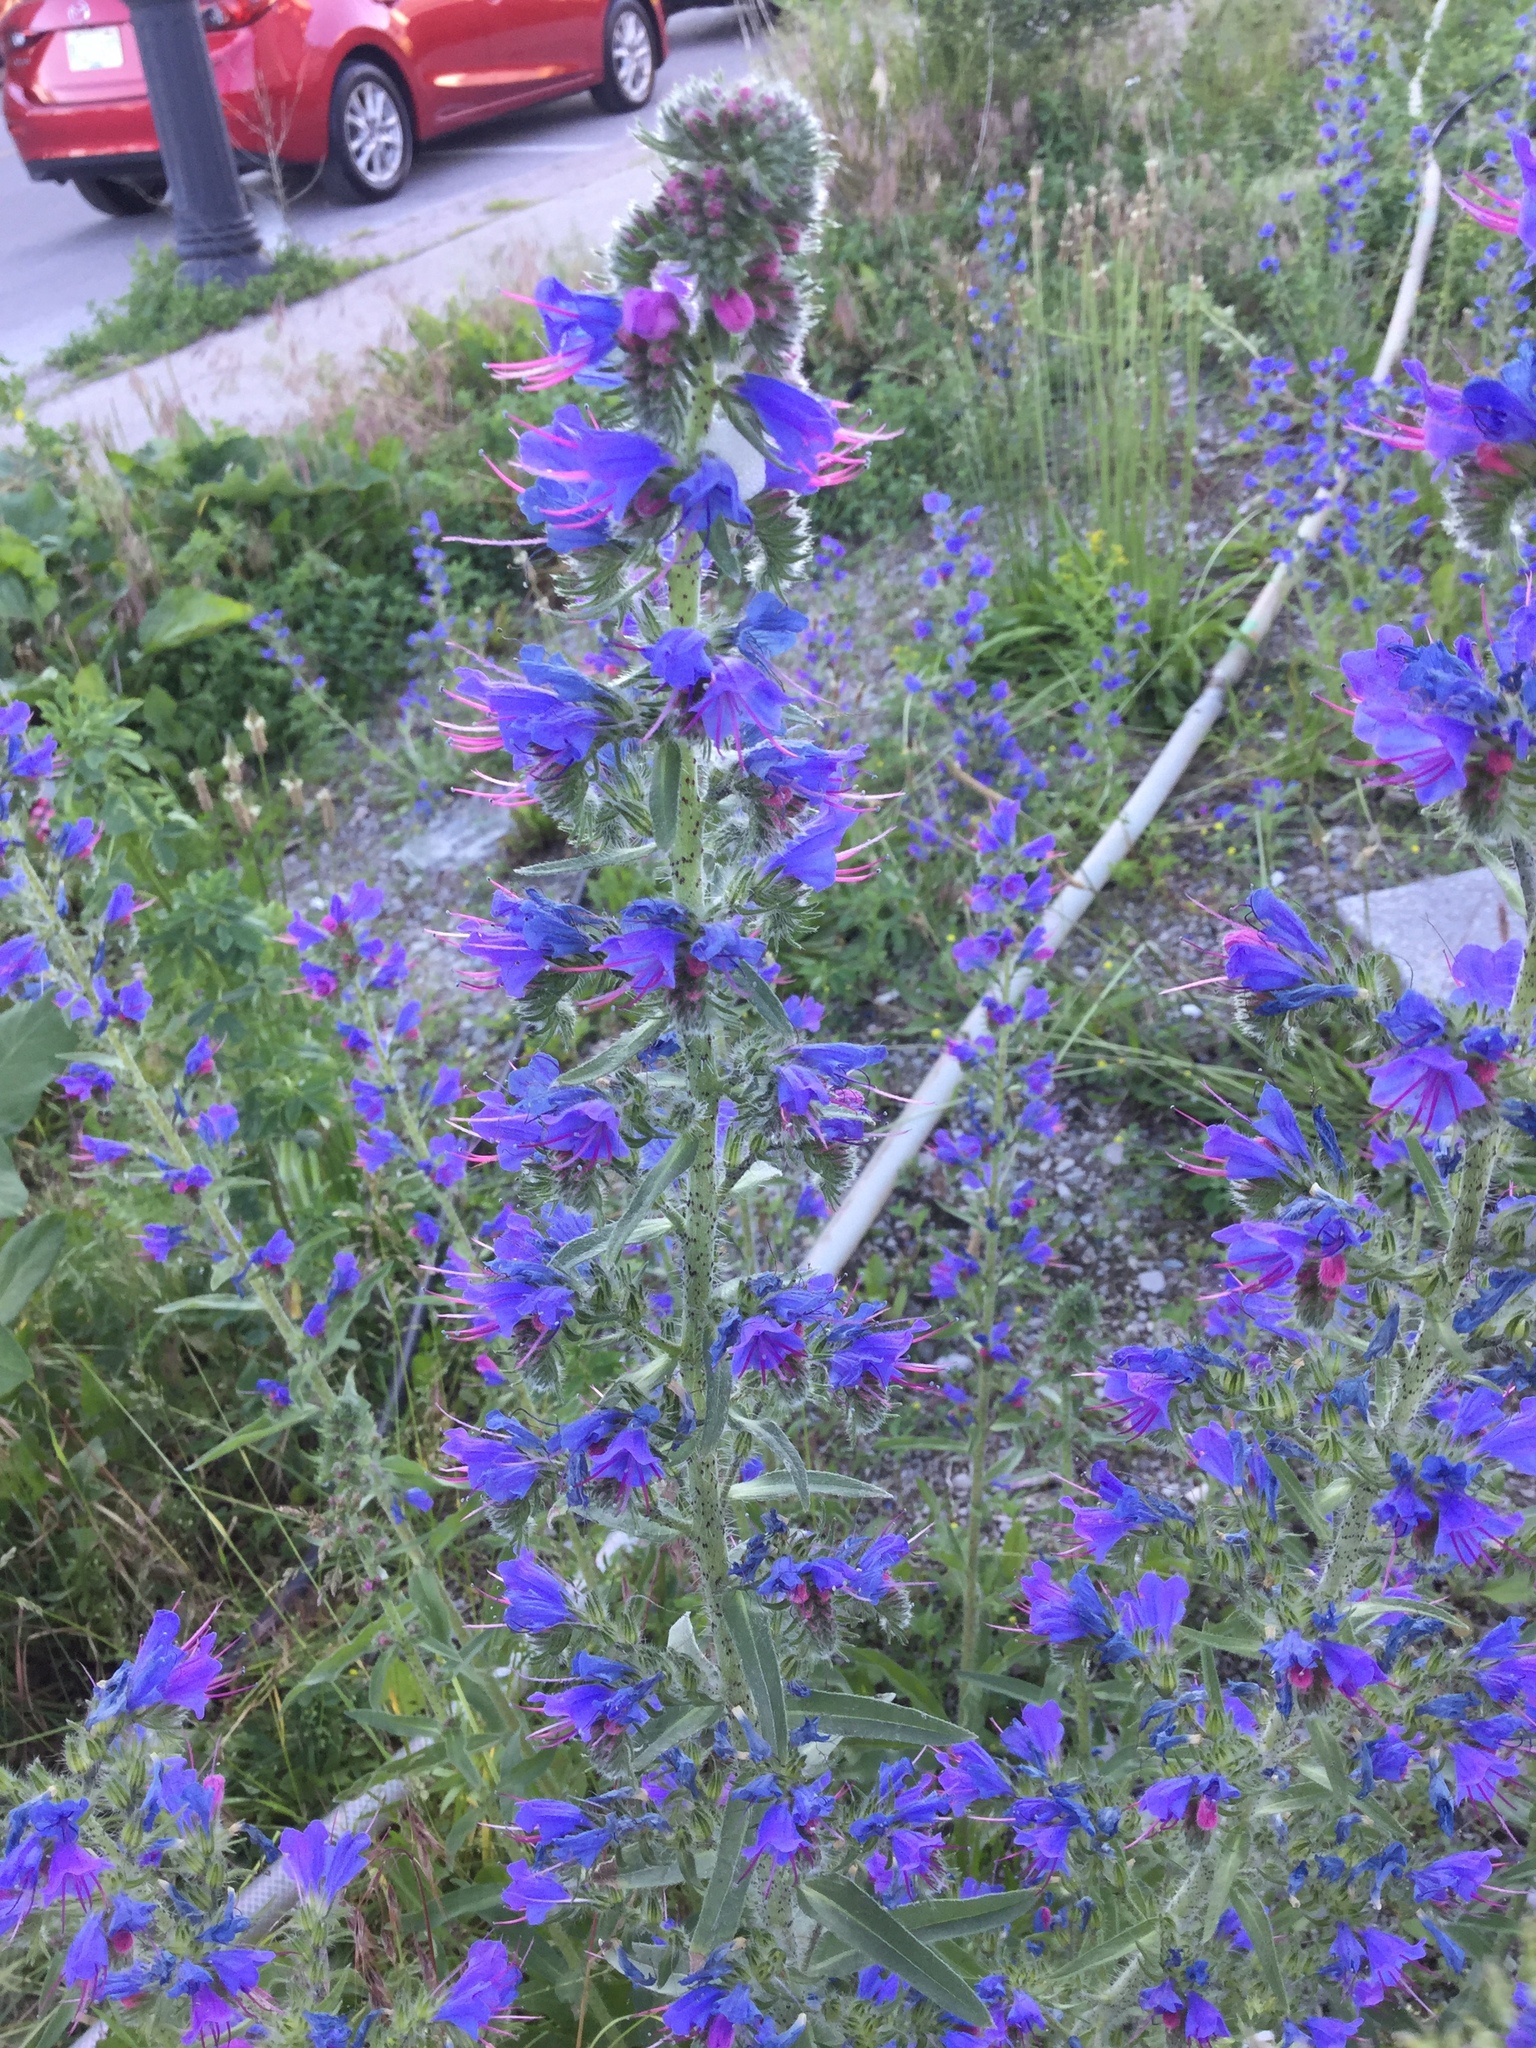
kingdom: Plantae
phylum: Tracheophyta
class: Magnoliopsida
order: Boraginales
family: Boraginaceae
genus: Echium
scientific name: Echium vulgare
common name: Common viper's bugloss
